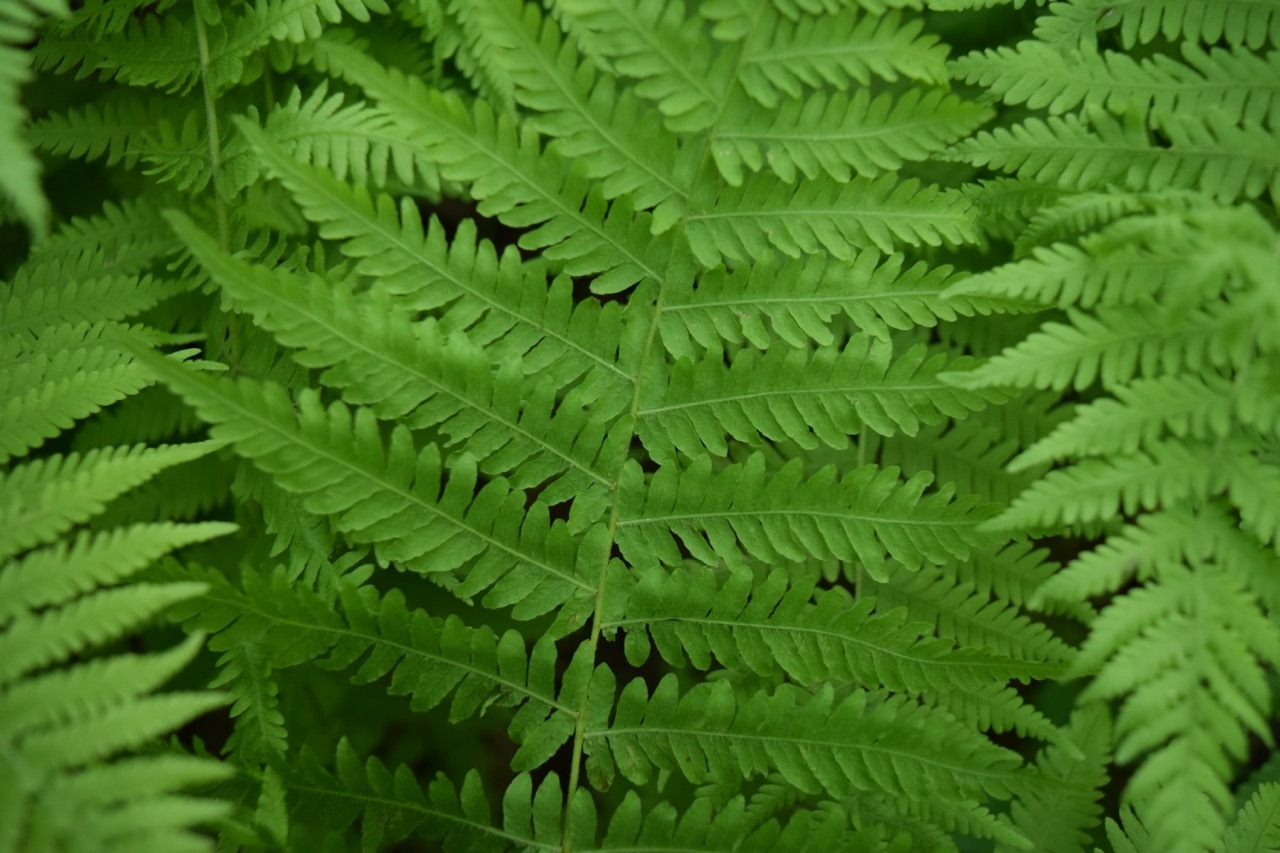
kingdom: Plantae
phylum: Tracheophyta
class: Polypodiopsida
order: Polypodiales
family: Thelypteridaceae
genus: Amauropelta
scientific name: Amauropelta noveboracensis
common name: New york fern
